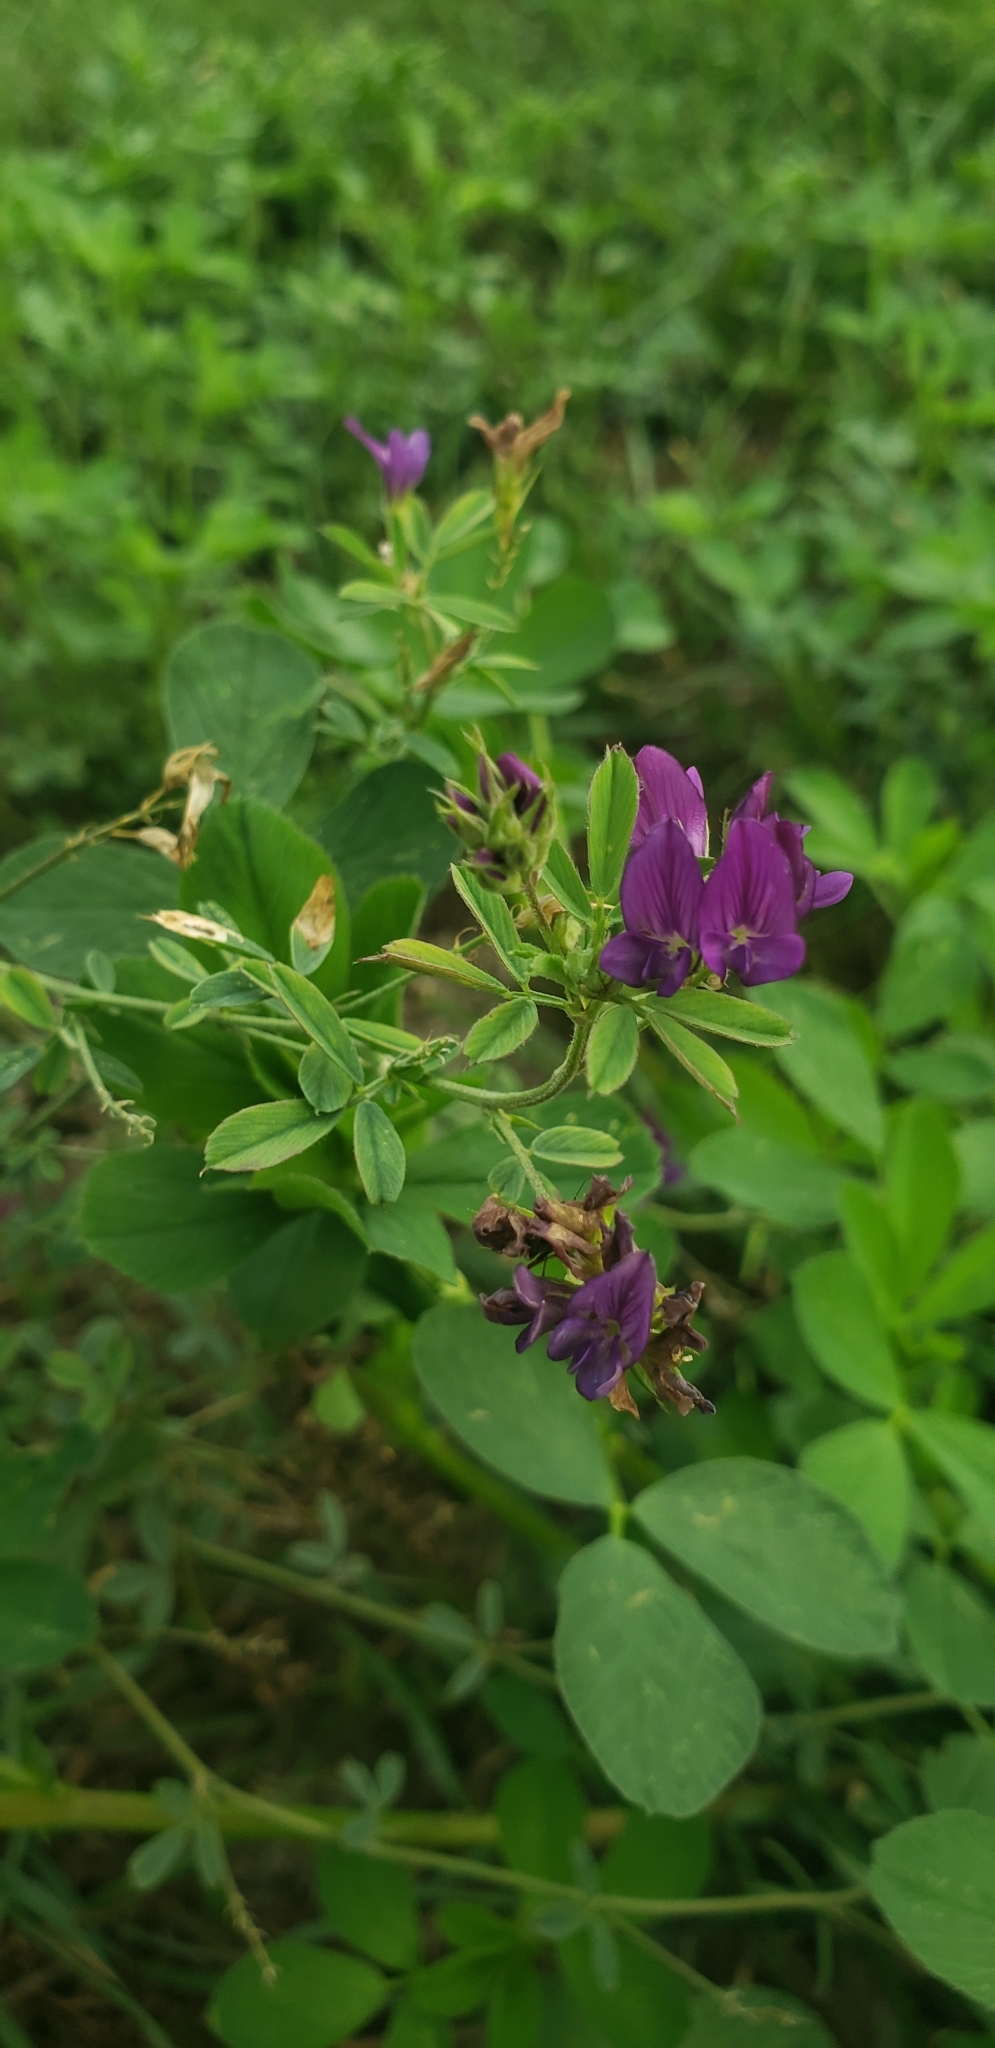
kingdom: Plantae
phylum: Tracheophyta
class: Magnoliopsida
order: Fabales
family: Fabaceae
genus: Medicago
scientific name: Medicago sativa
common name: Alfalfa
